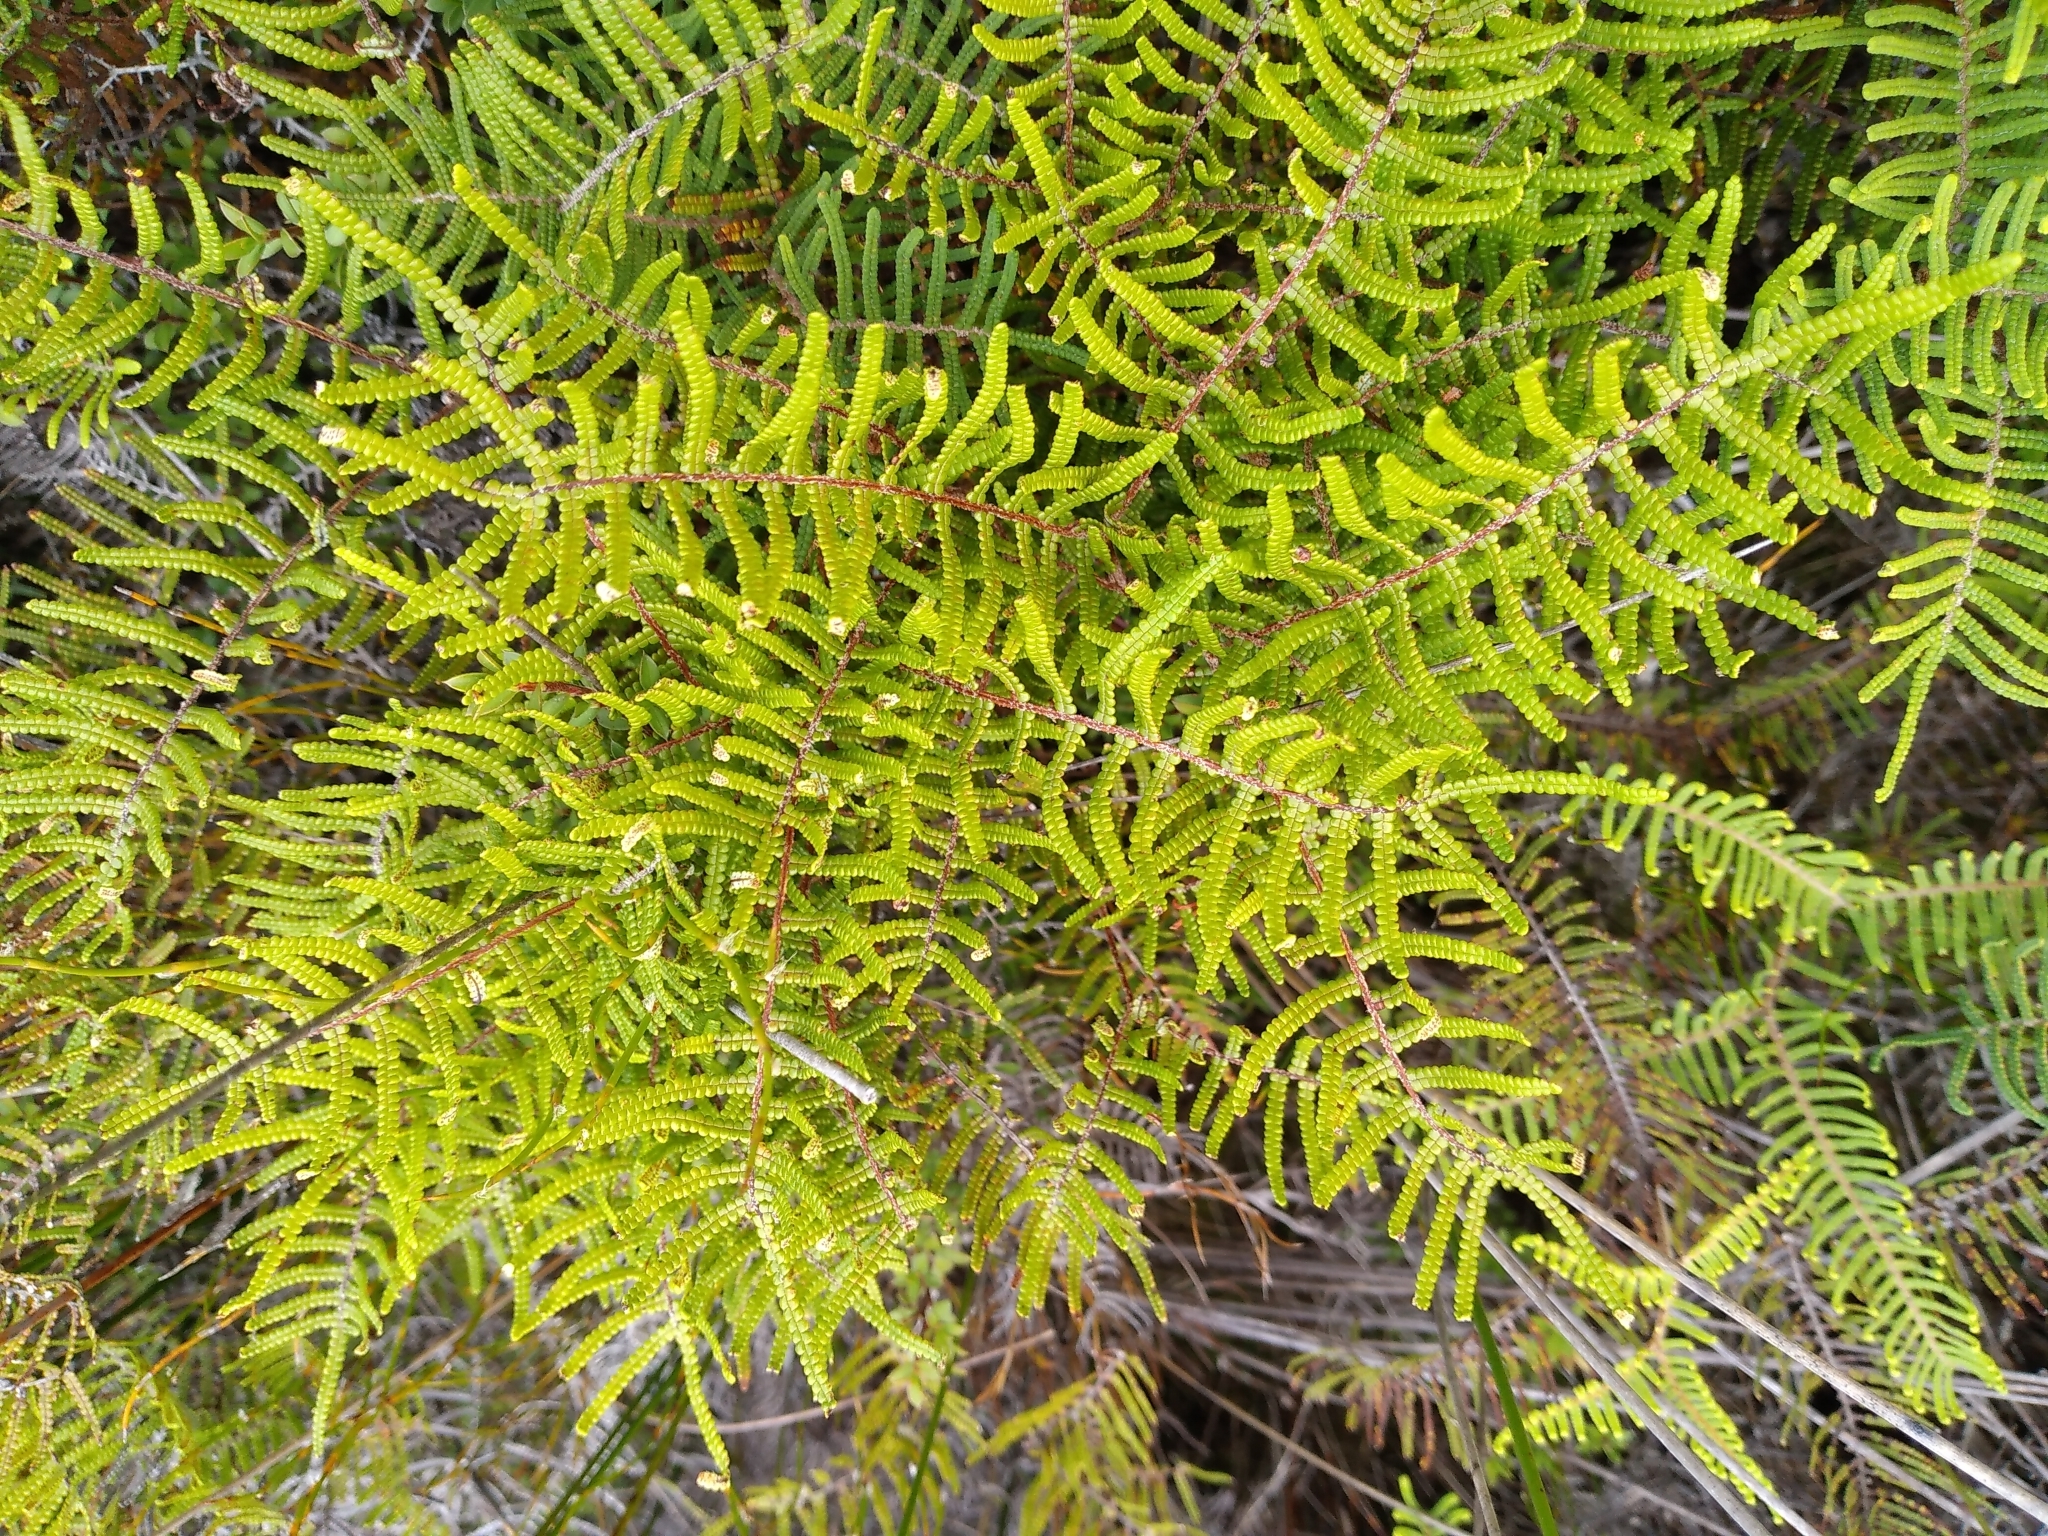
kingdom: Plantae
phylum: Tracheophyta
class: Polypodiopsida
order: Gleicheniales
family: Gleicheniaceae
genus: Gleichenia
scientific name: Gleichenia inclusisora
